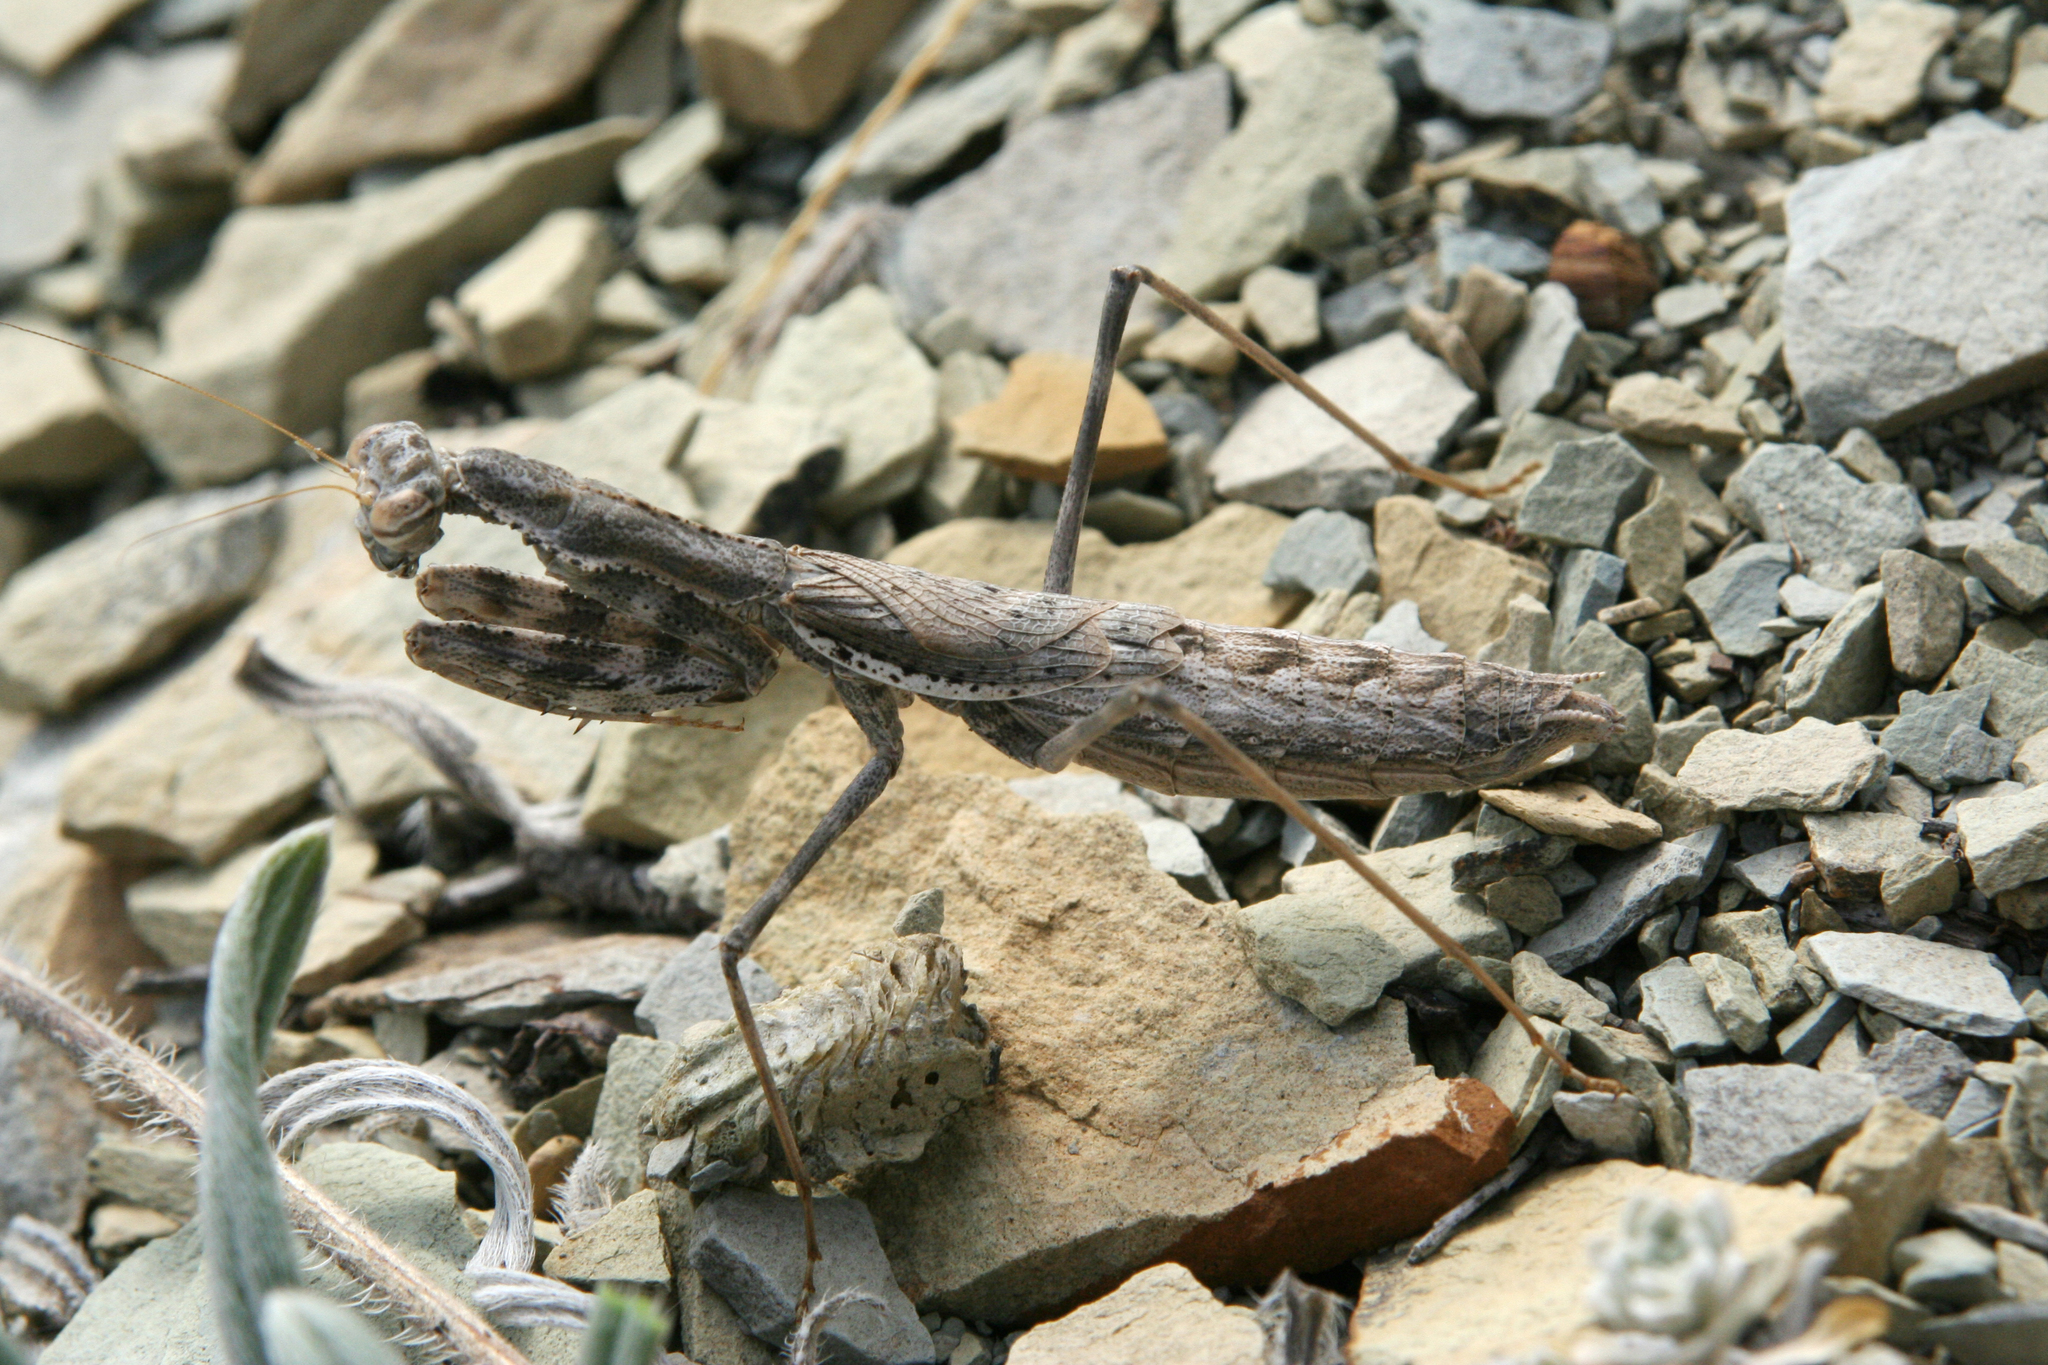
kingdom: Animalia
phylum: Arthropoda
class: Insecta
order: Mantodea
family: Rivetinidae
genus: Bolivaria
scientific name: Bolivaria brachyptera
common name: Bolivar's short winged mantis
